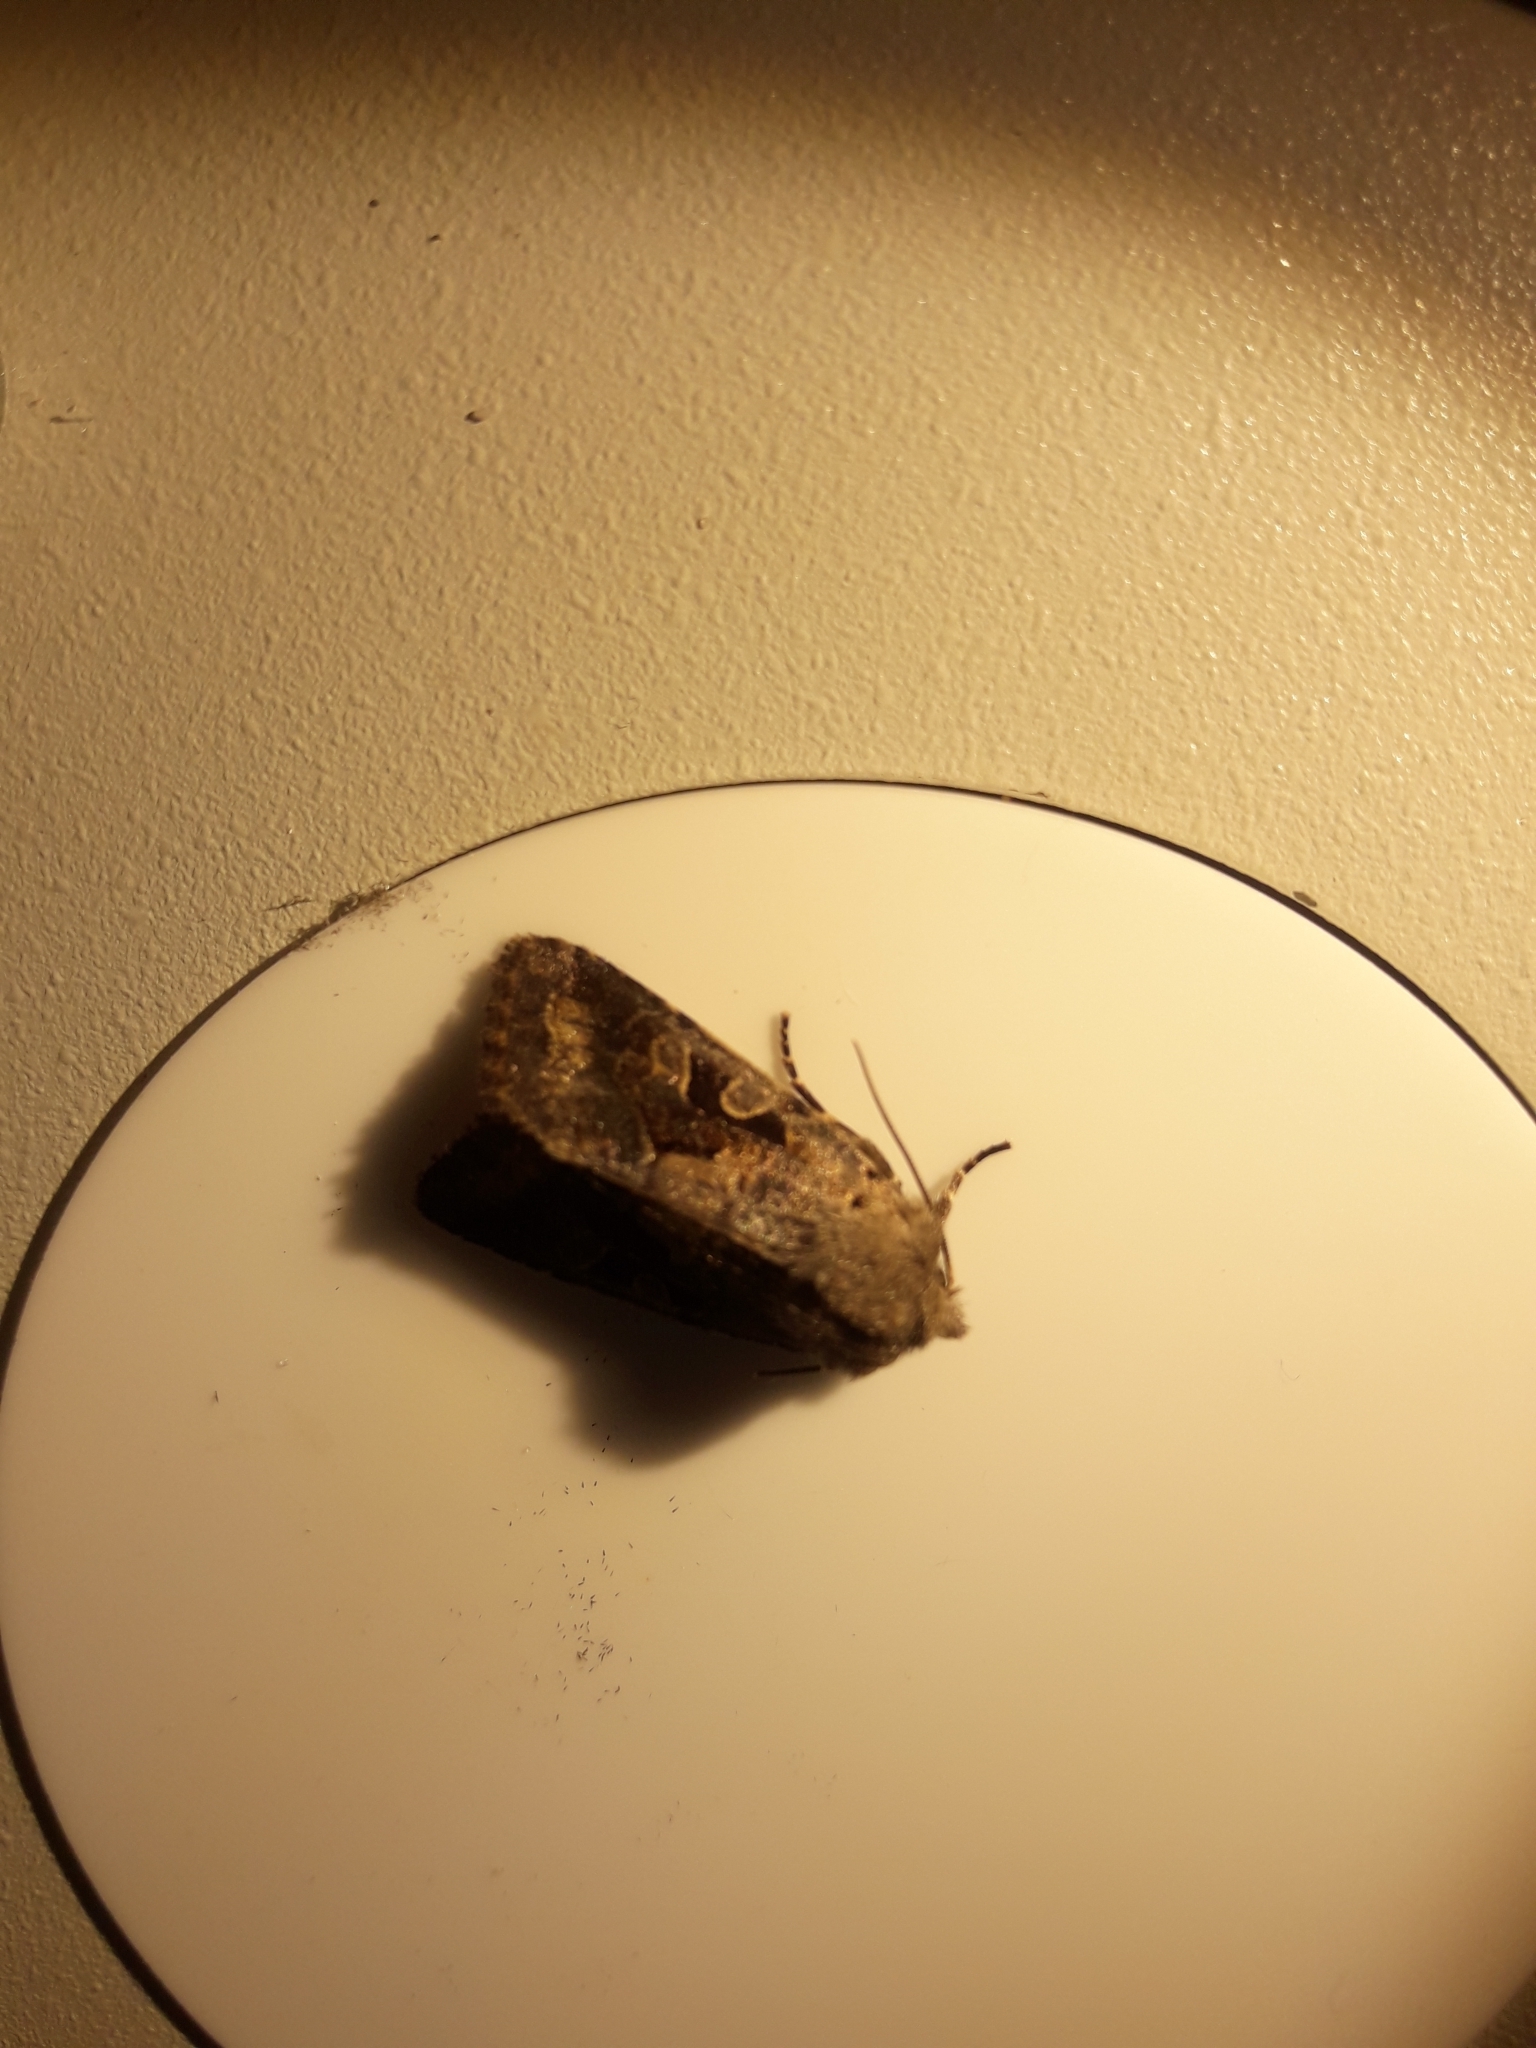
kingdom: Animalia
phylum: Arthropoda
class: Insecta
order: Lepidoptera
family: Noctuidae
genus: Orthosia
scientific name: Orthosia gothica
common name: Hebrew character
